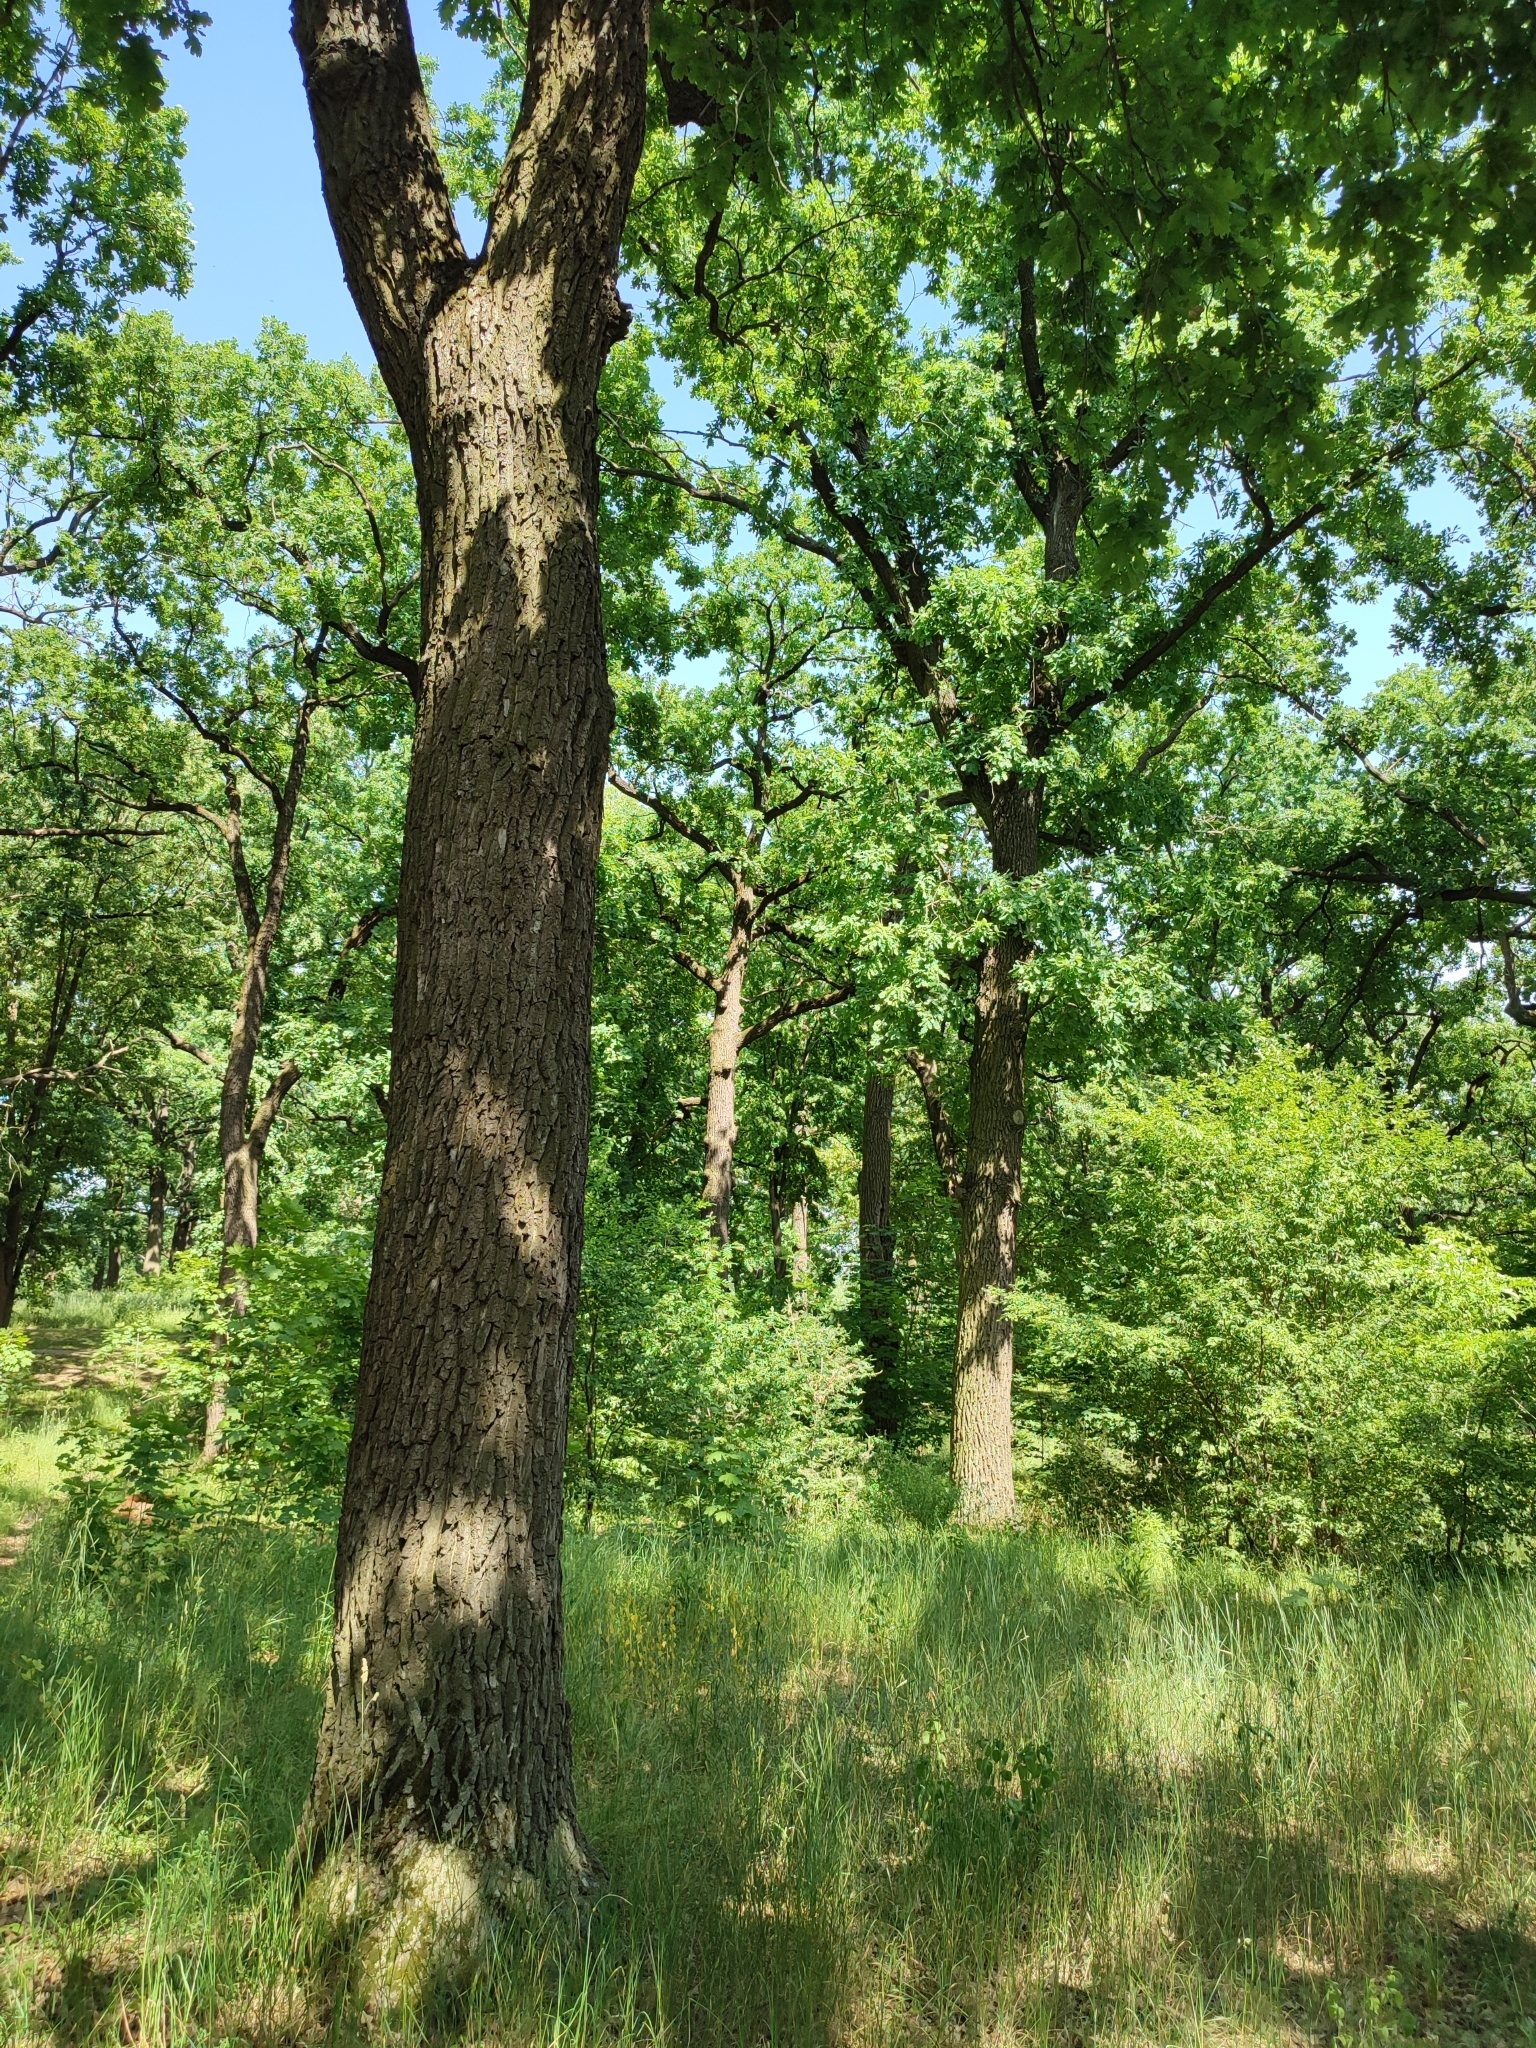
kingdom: Plantae
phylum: Tracheophyta
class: Magnoliopsida
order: Fagales
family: Fagaceae
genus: Quercus
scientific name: Quercus robur
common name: Pedunculate oak
